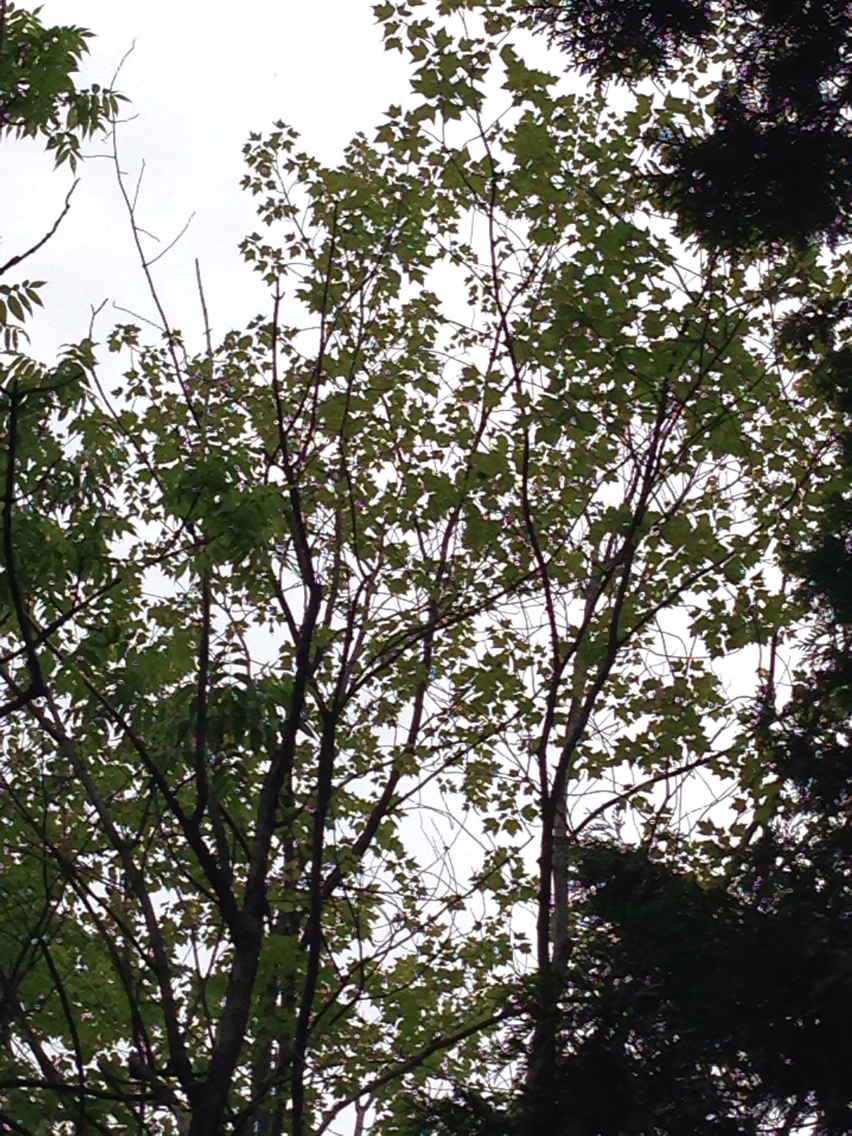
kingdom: Plantae
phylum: Tracheophyta
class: Magnoliopsida
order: Sapindales
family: Sapindaceae
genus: Acer
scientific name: Acer rubrum
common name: Red maple
